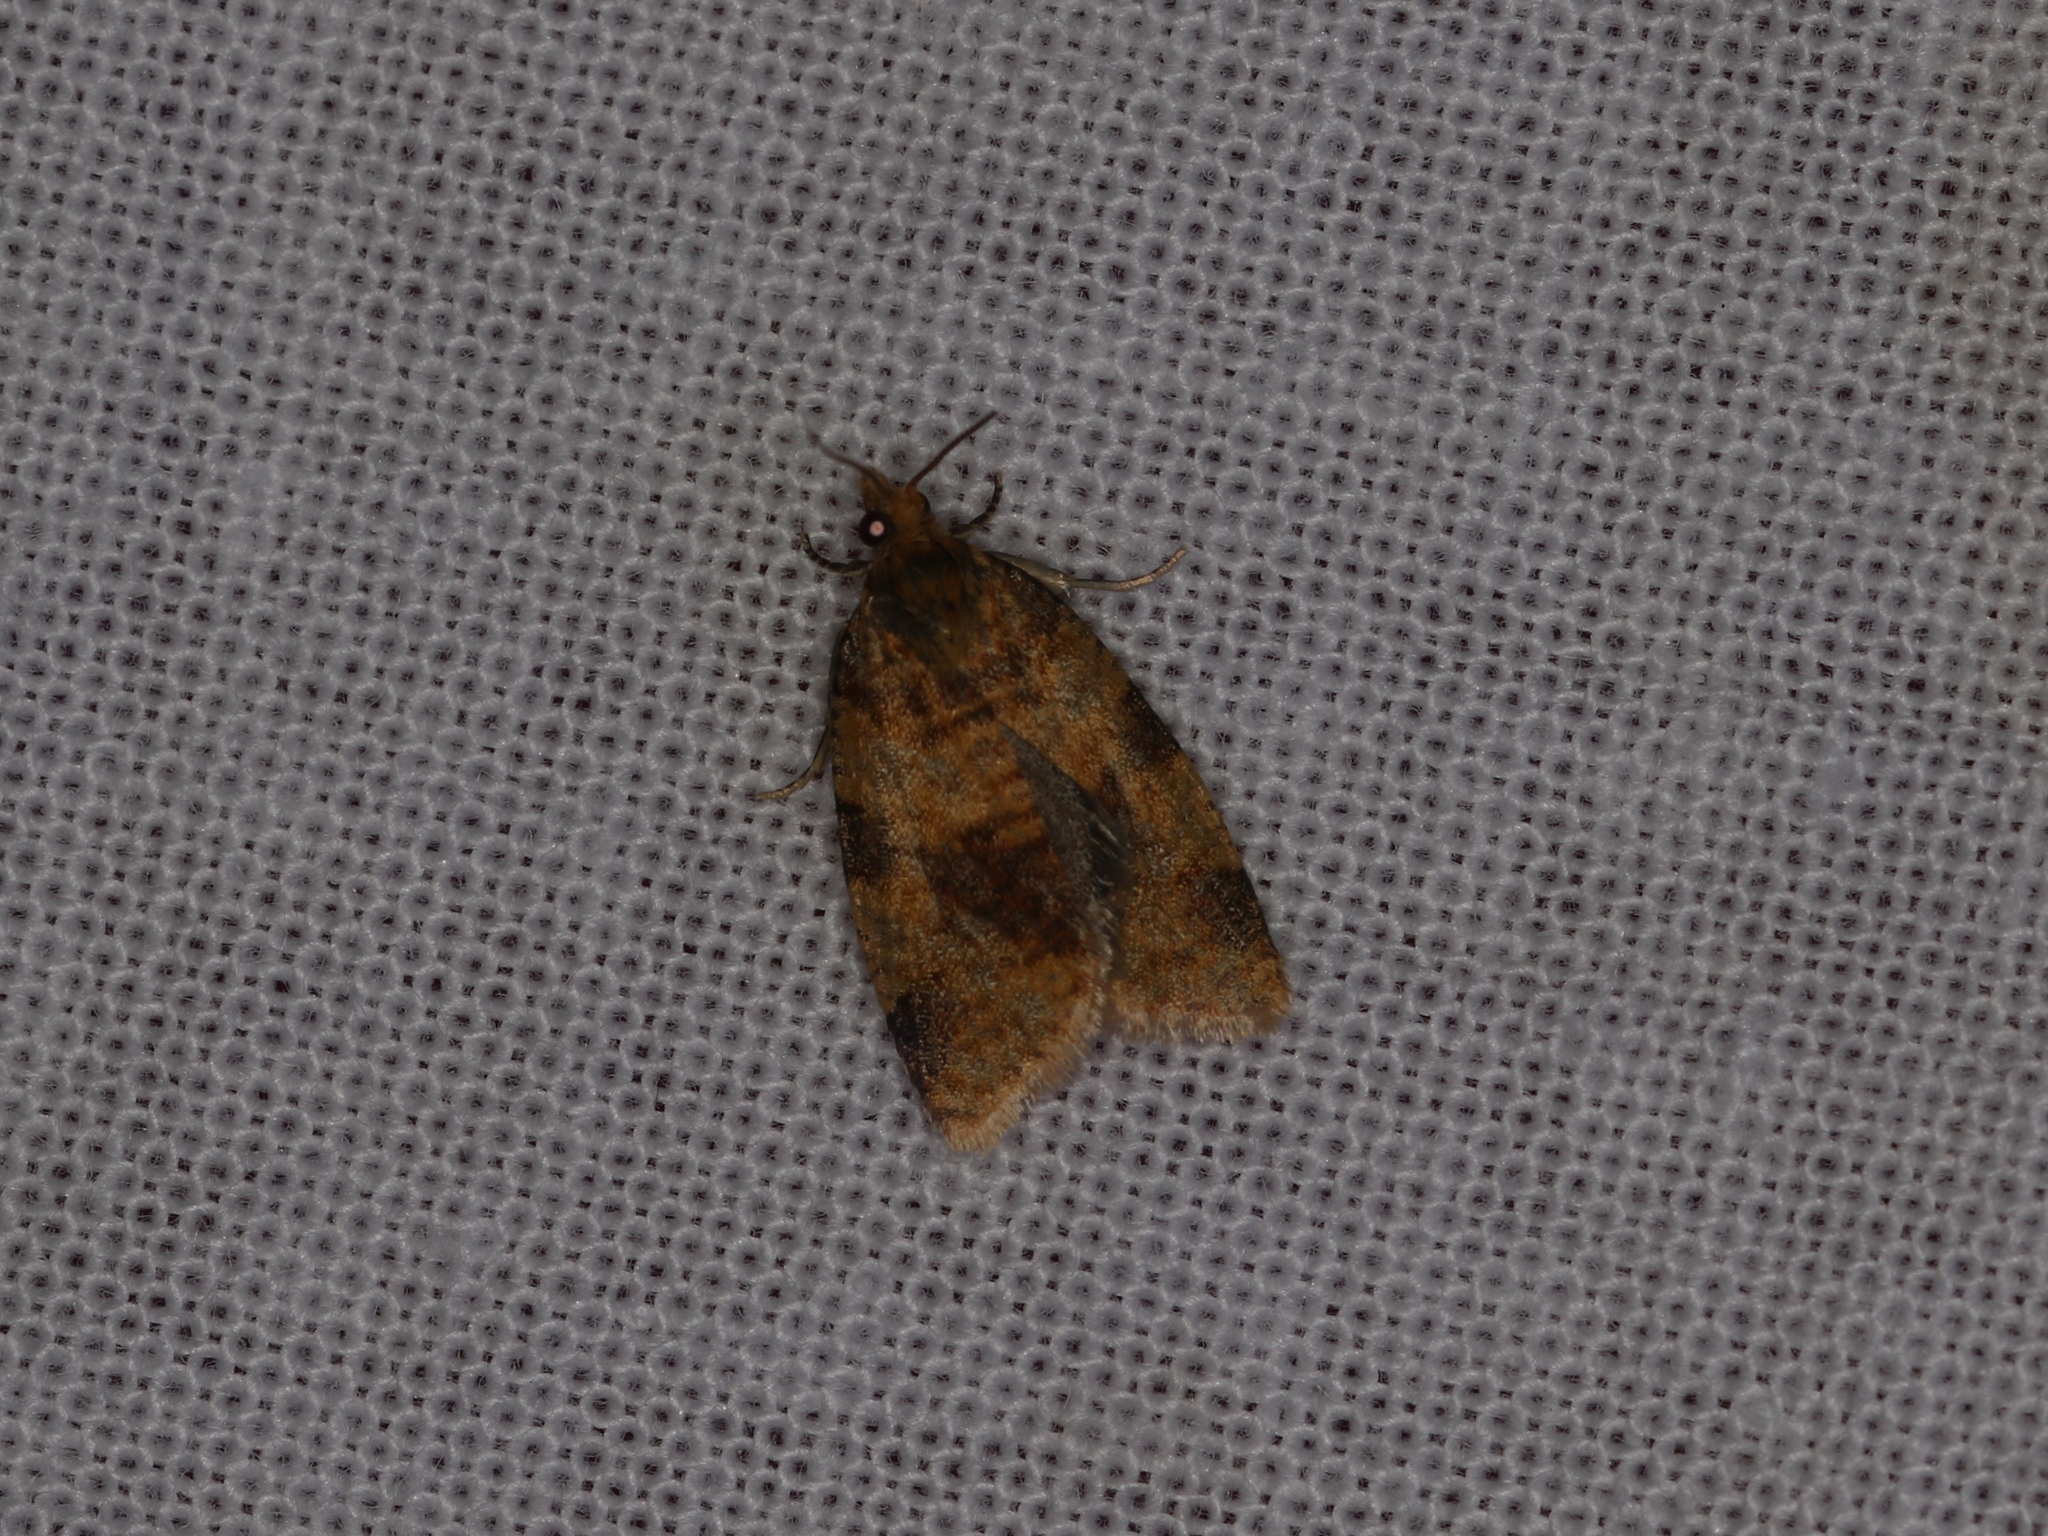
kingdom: Animalia
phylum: Arthropoda
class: Insecta
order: Lepidoptera
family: Tortricidae
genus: Epagoge
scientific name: Epagoge grotiana
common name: Brown-barred twist
